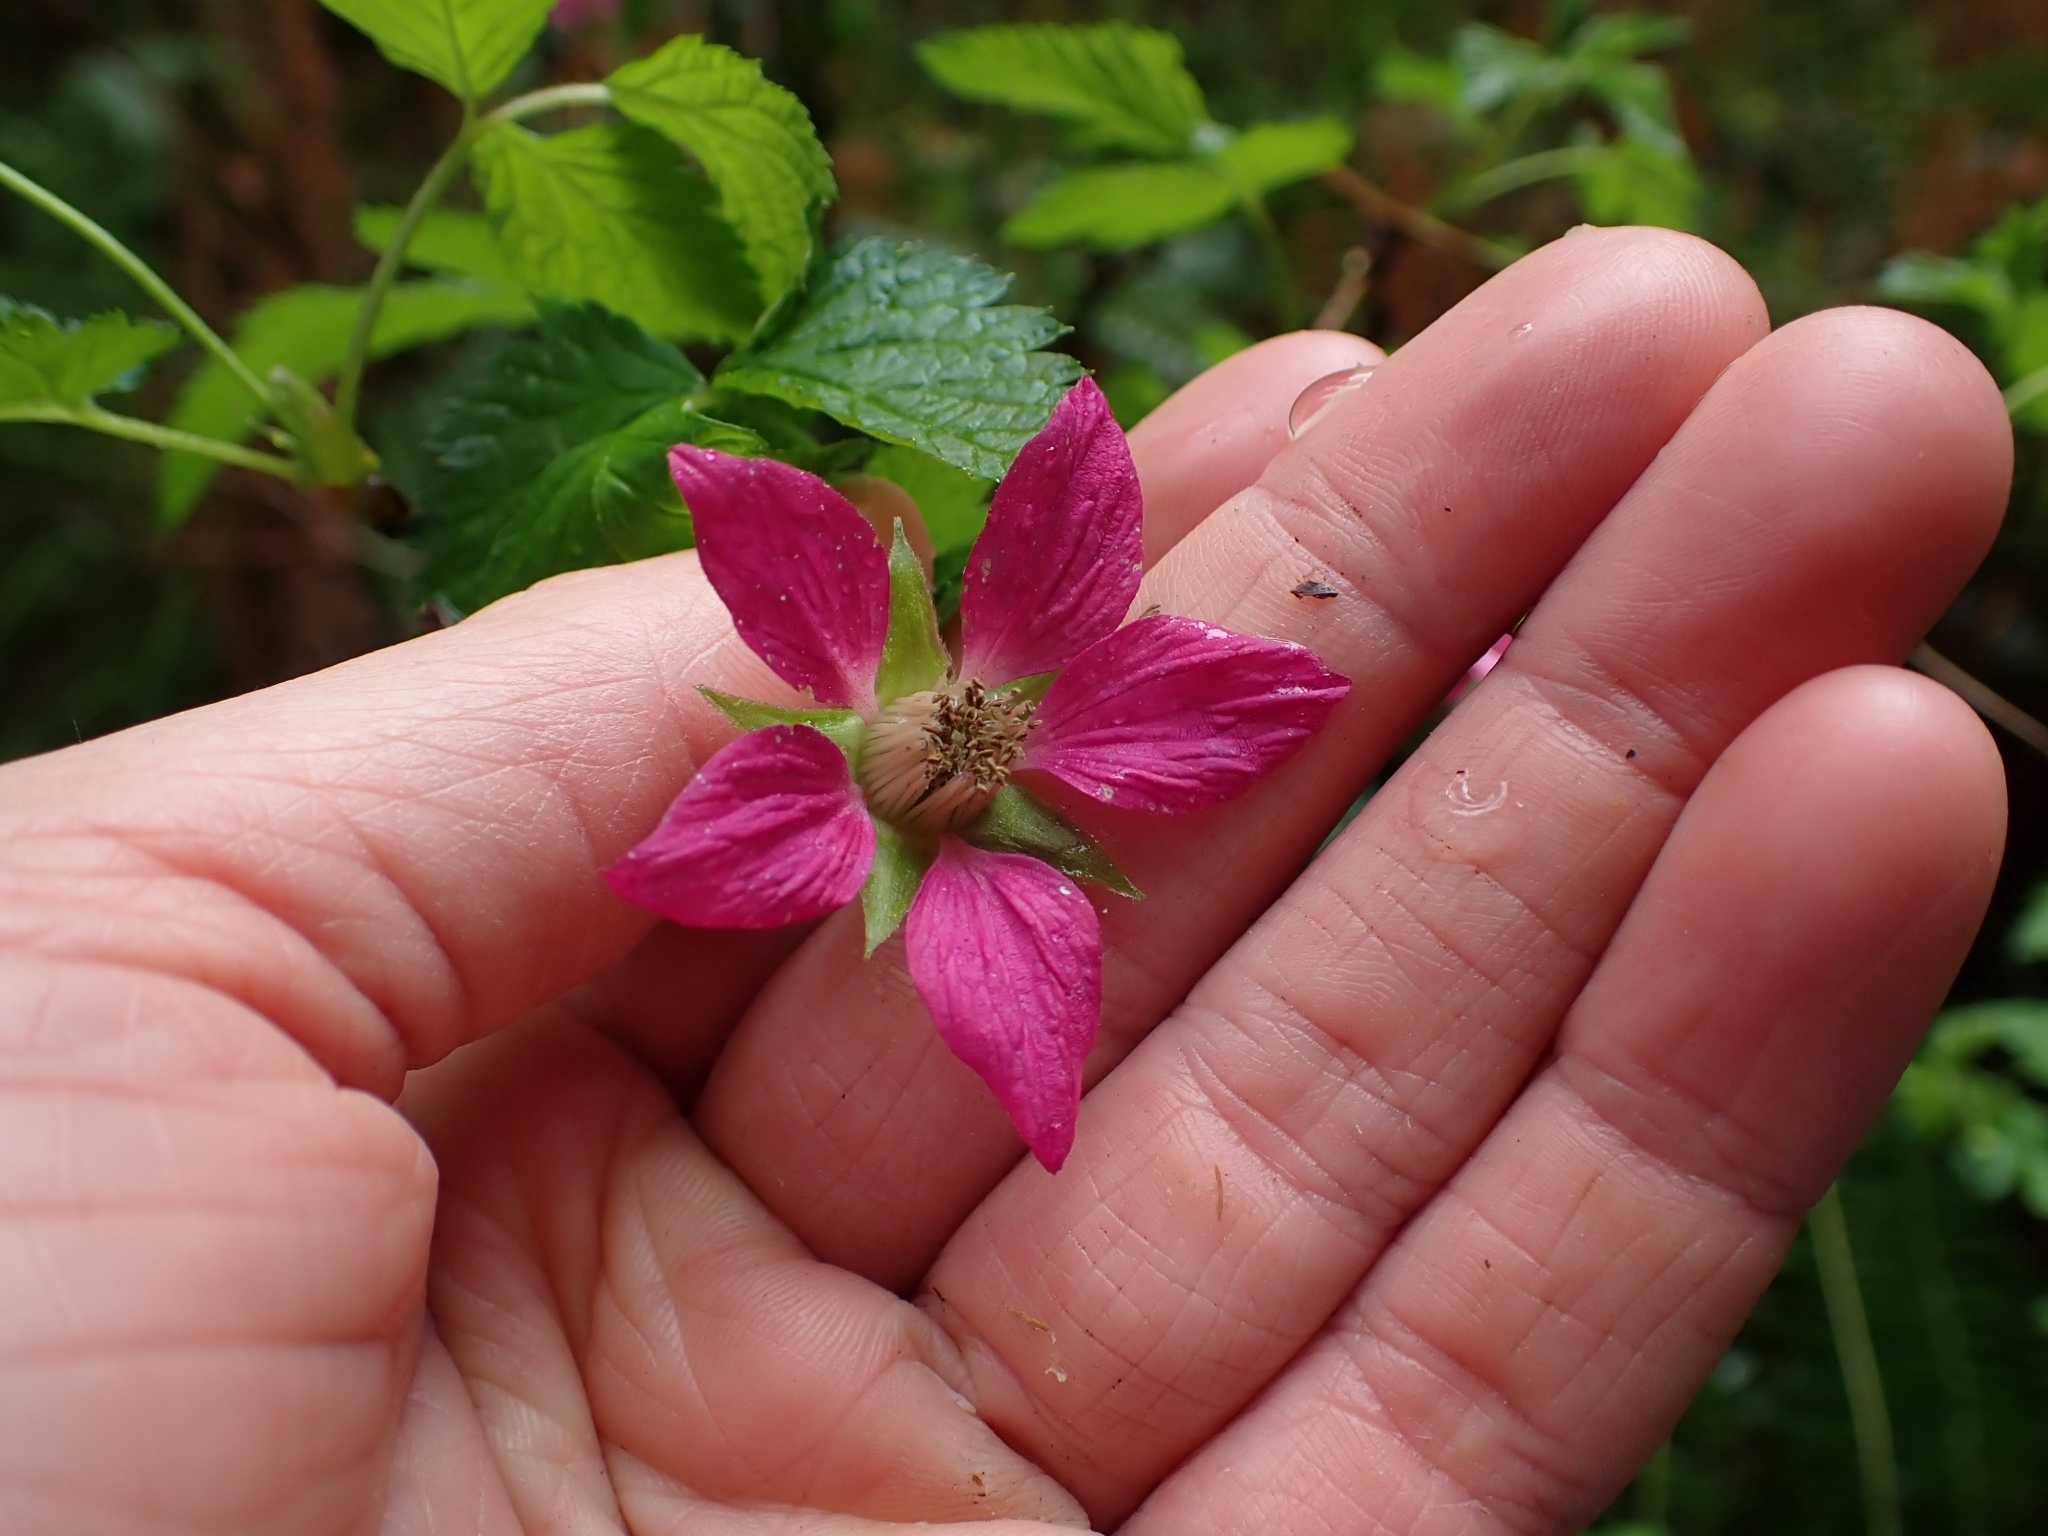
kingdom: Plantae
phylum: Tracheophyta
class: Magnoliopsida
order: Rosales
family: Rosaceae
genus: Rubus
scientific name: Rubus spectabilis
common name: Salmonberry
